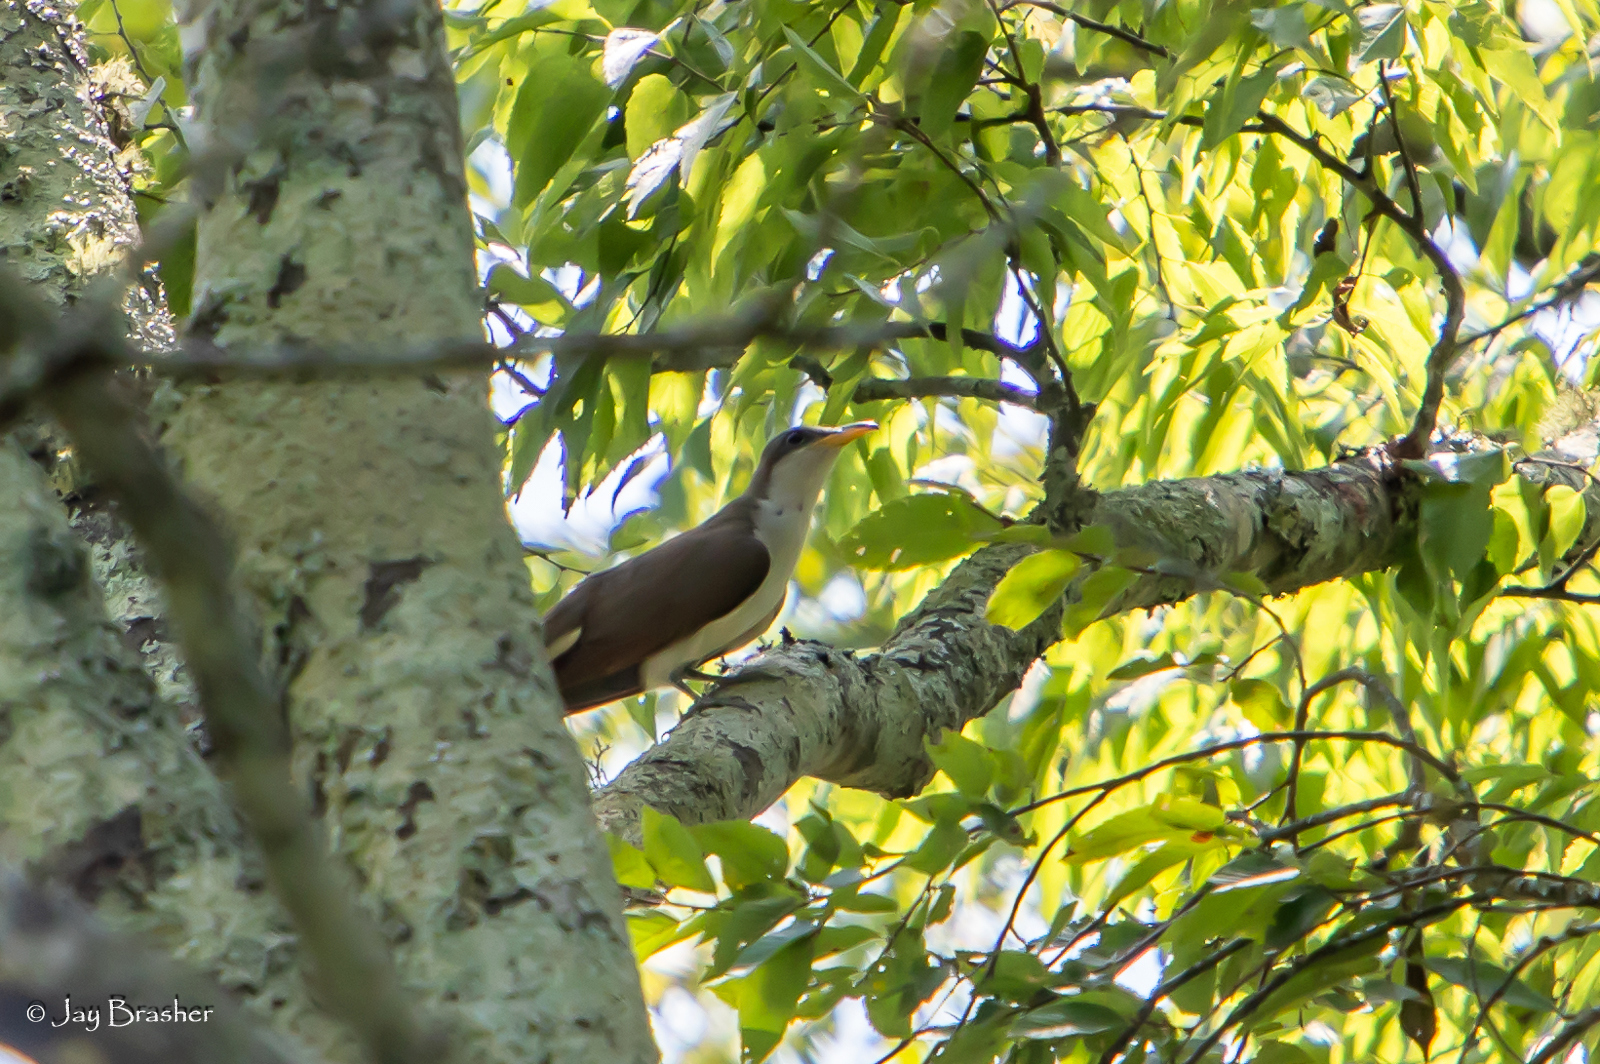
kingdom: Animalia
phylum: Chordata
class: Aves
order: Cuculiformes
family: Cuculidae
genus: Coccyzus
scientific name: Coccyzus americanus
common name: Yellow-billed cuckoo
